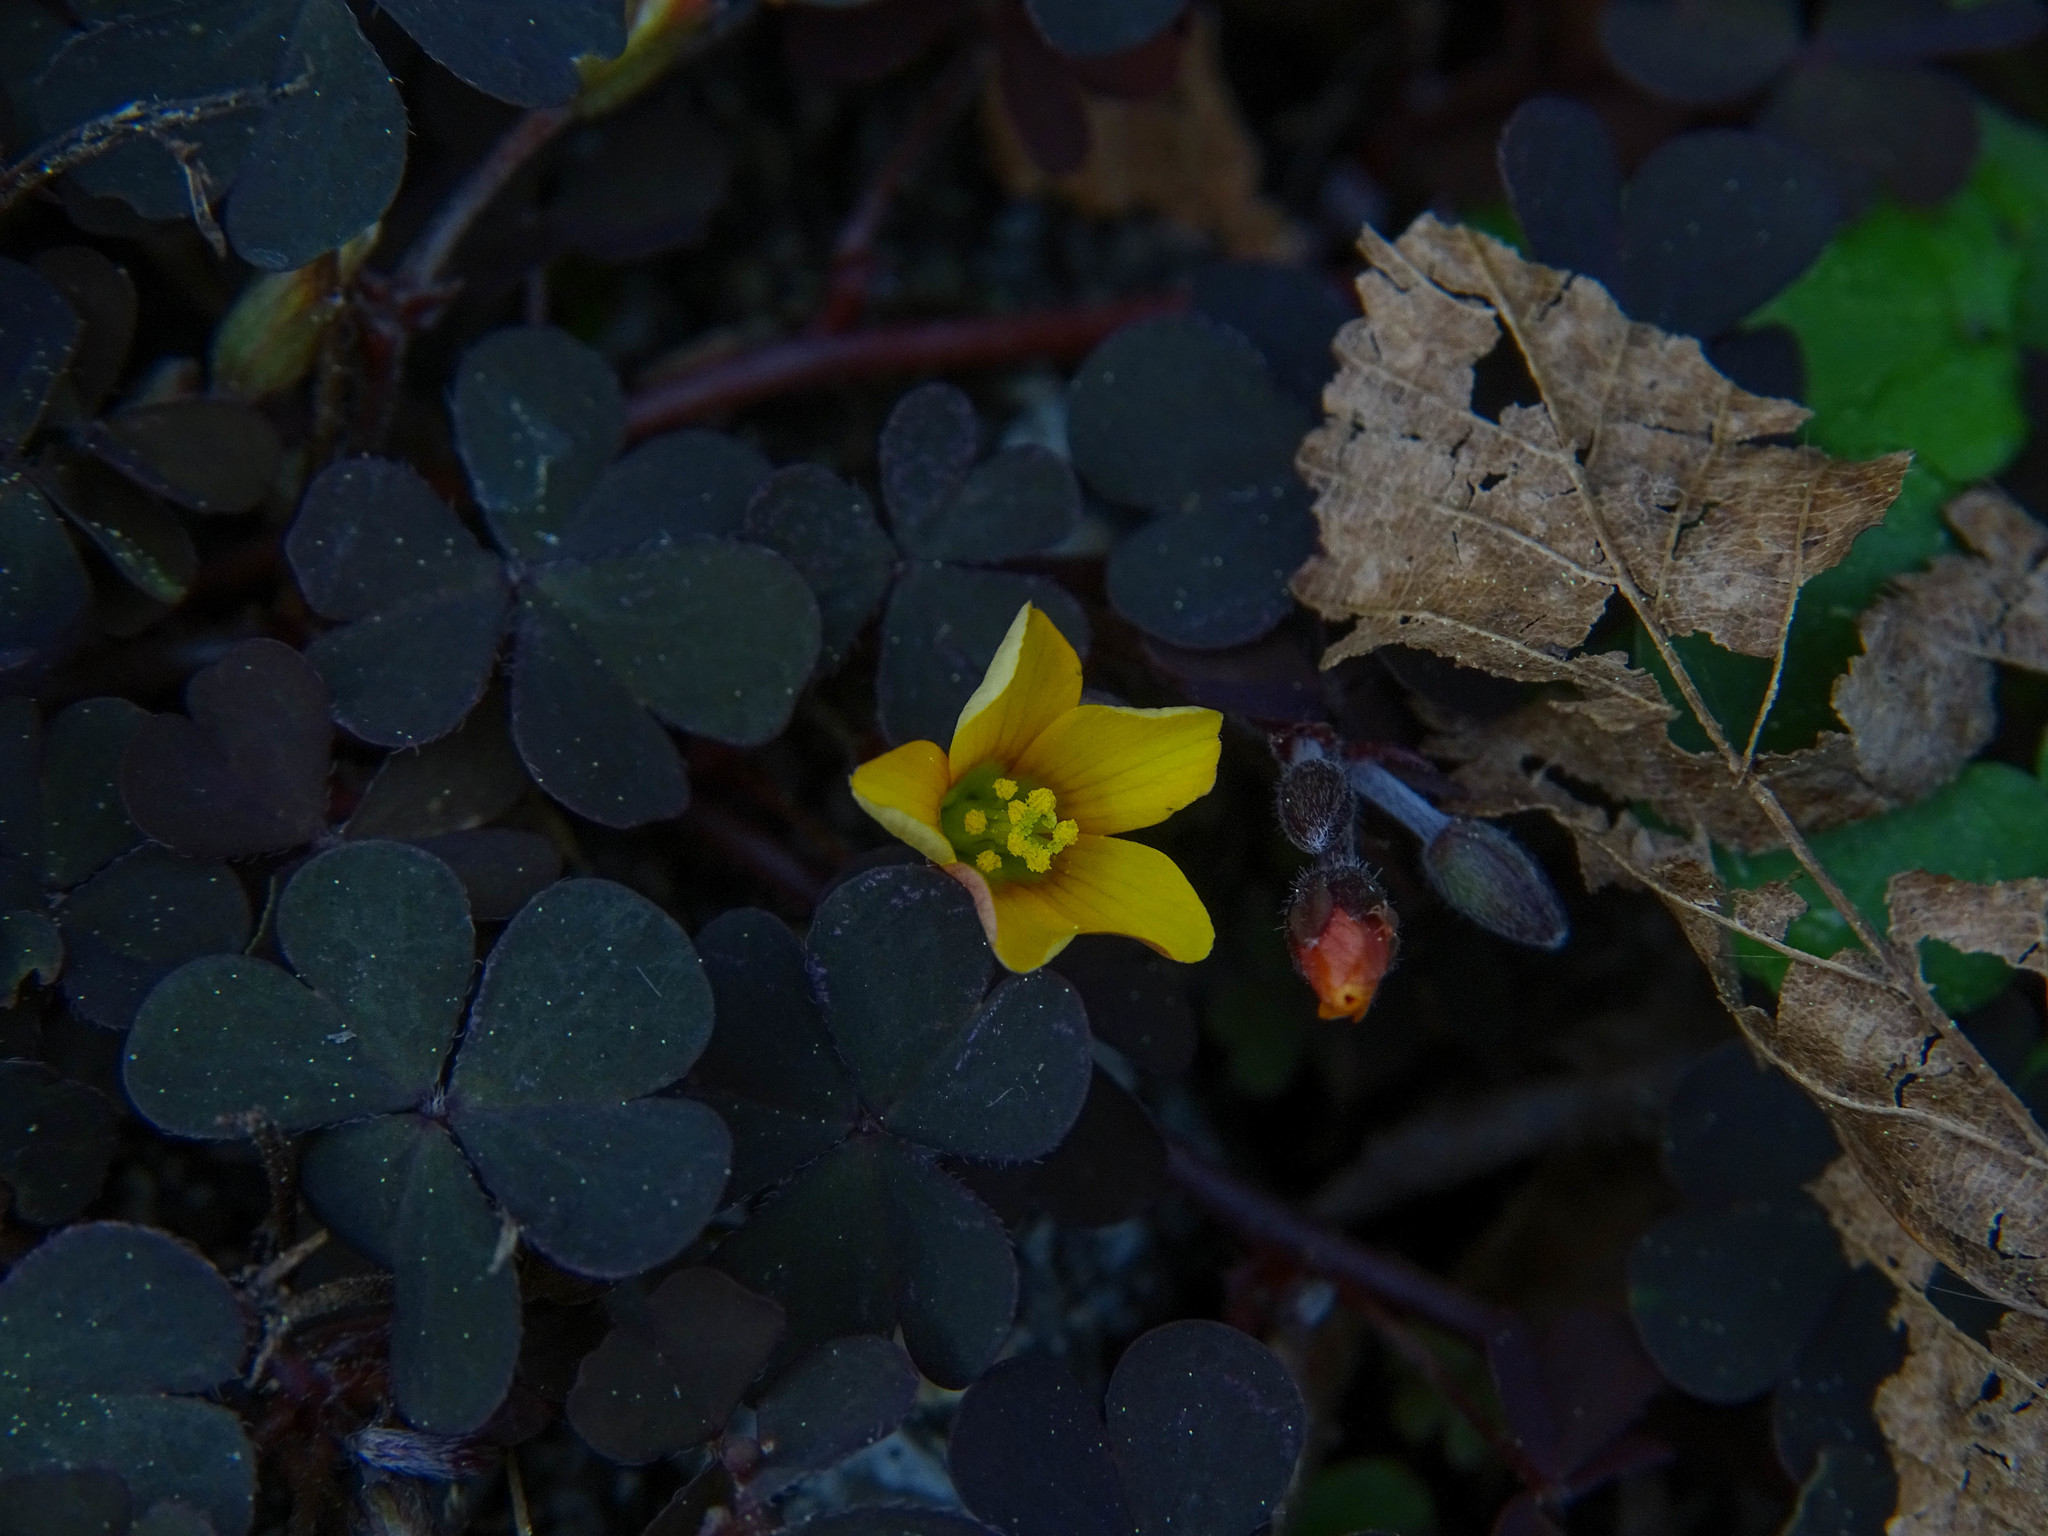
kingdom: Plantae
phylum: Tracheophyta
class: Magnoliopsida
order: Oxalidales
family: Oxalidaceae
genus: Oxalis
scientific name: Oxalis corniculata
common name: Procumbent yellow-sorrel
